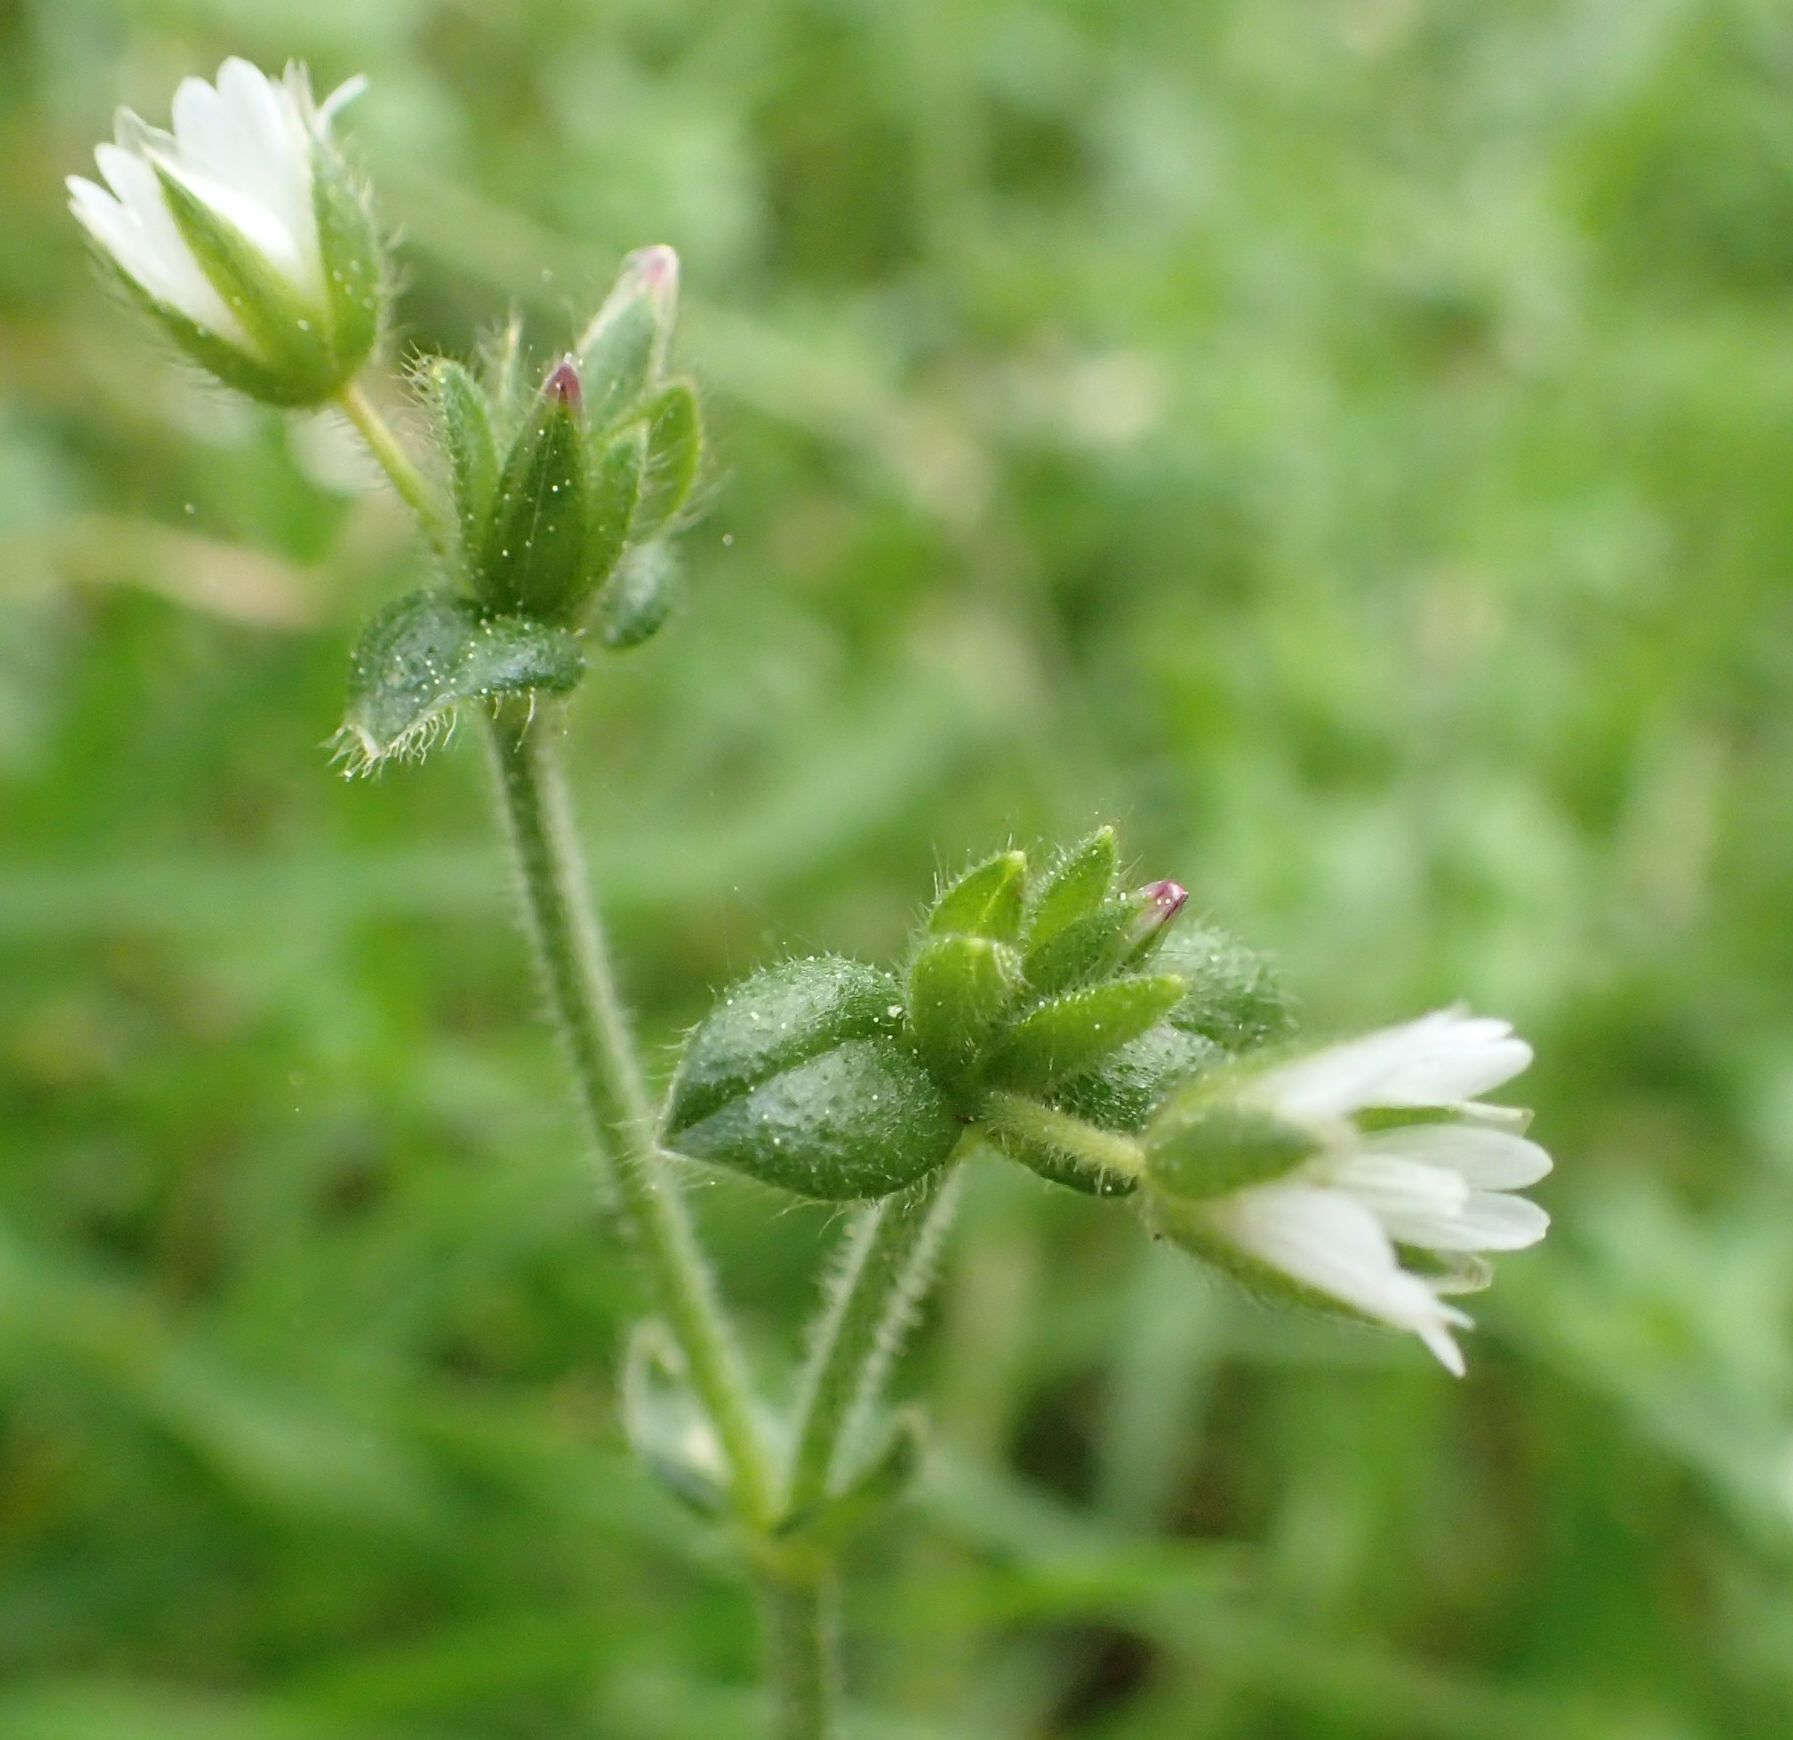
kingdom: Plantae
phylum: Tracheophyta
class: Magnoliopsida
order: Caryophyllales
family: Caryophyllaceae
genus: Cerastium
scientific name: Cerastium fontanum
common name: Common mouse-ear
